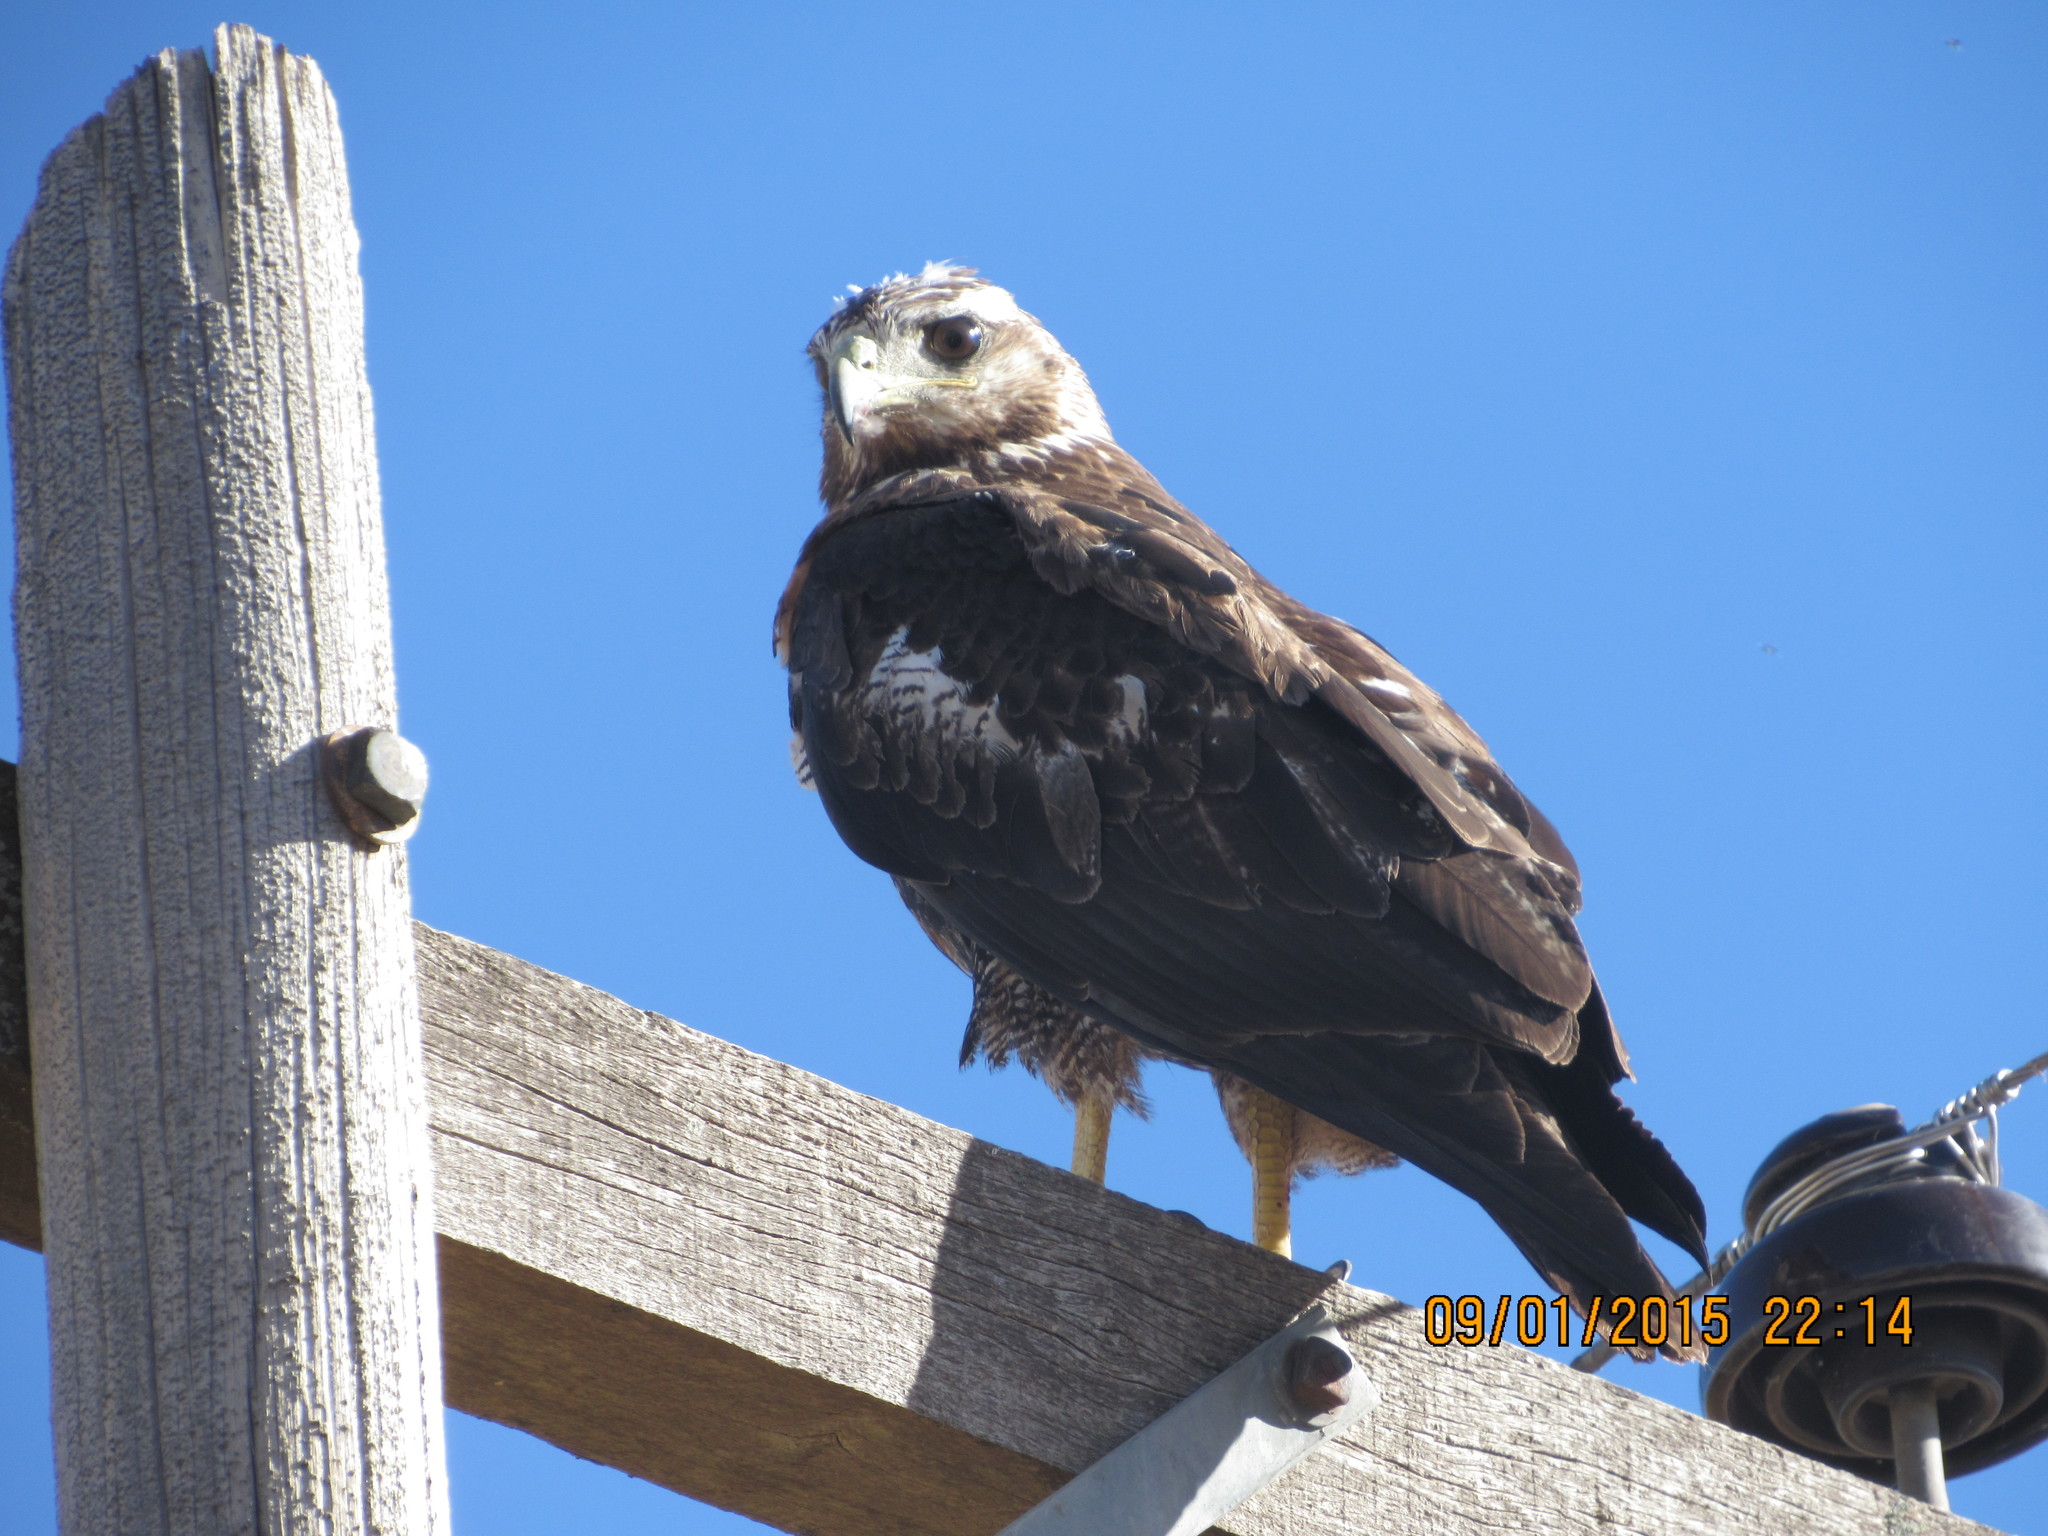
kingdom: Animalia
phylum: Chordata
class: Aves
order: Accipitriformes
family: Accipitridae
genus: Geranoaetus
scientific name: Geranoaetus melanoleucus
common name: Black-chested buzzard-eagle
